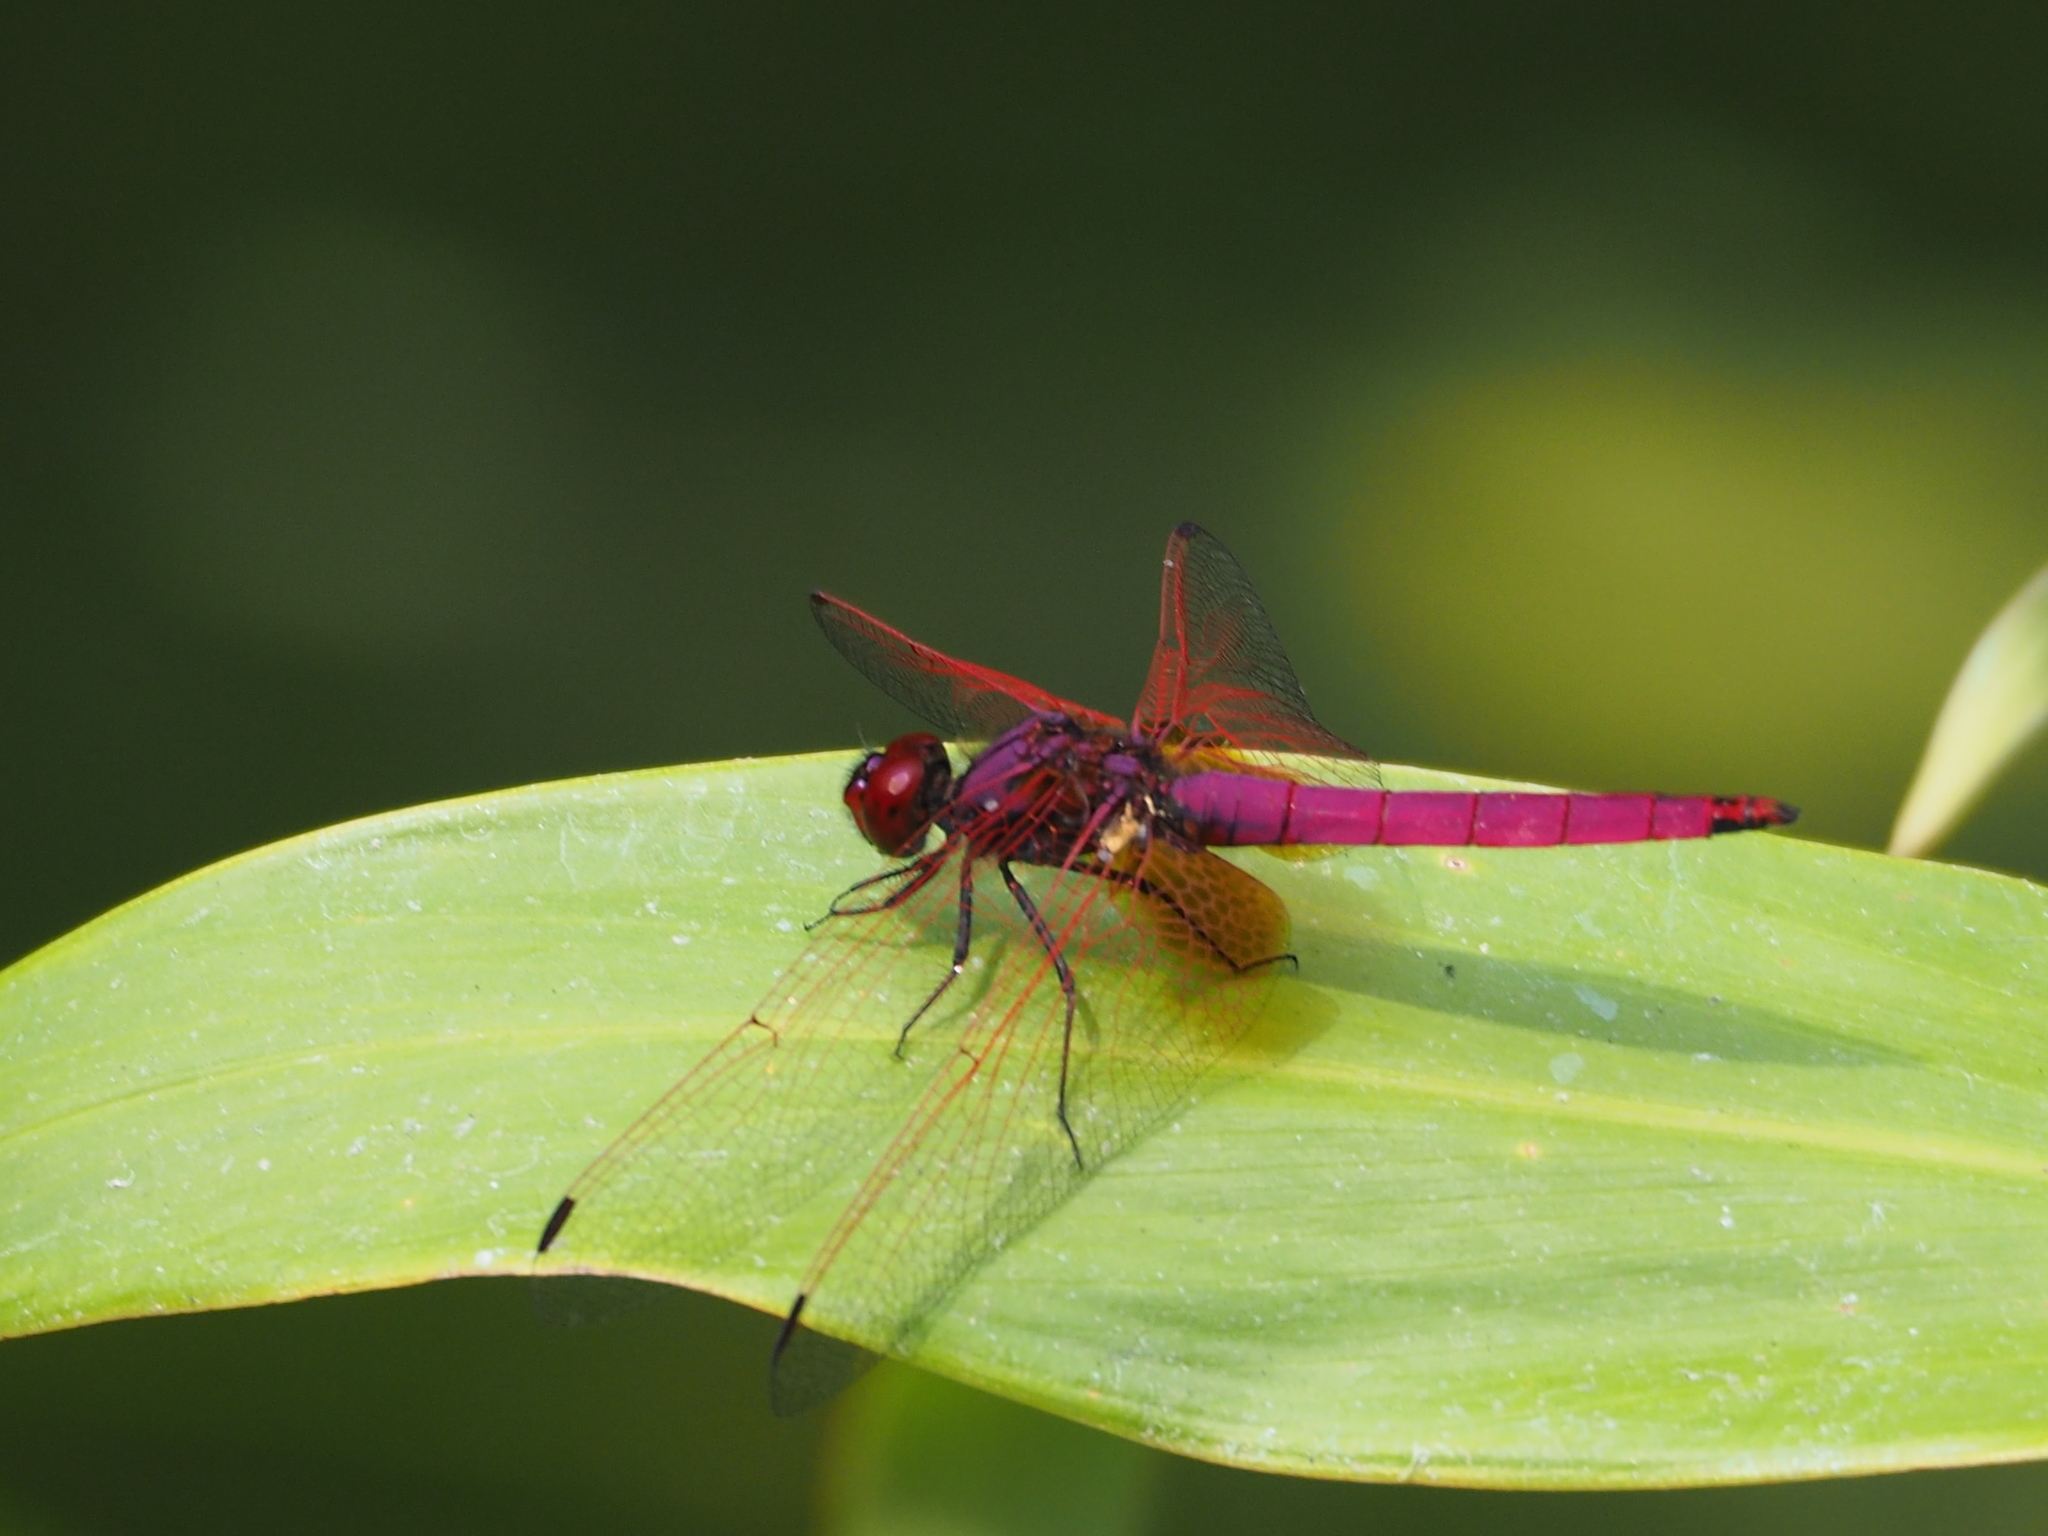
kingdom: Animalia
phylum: Arthropoda
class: Insecta
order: Odonata
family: Libellulidae
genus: Trithemis
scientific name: Trithemis aurora
